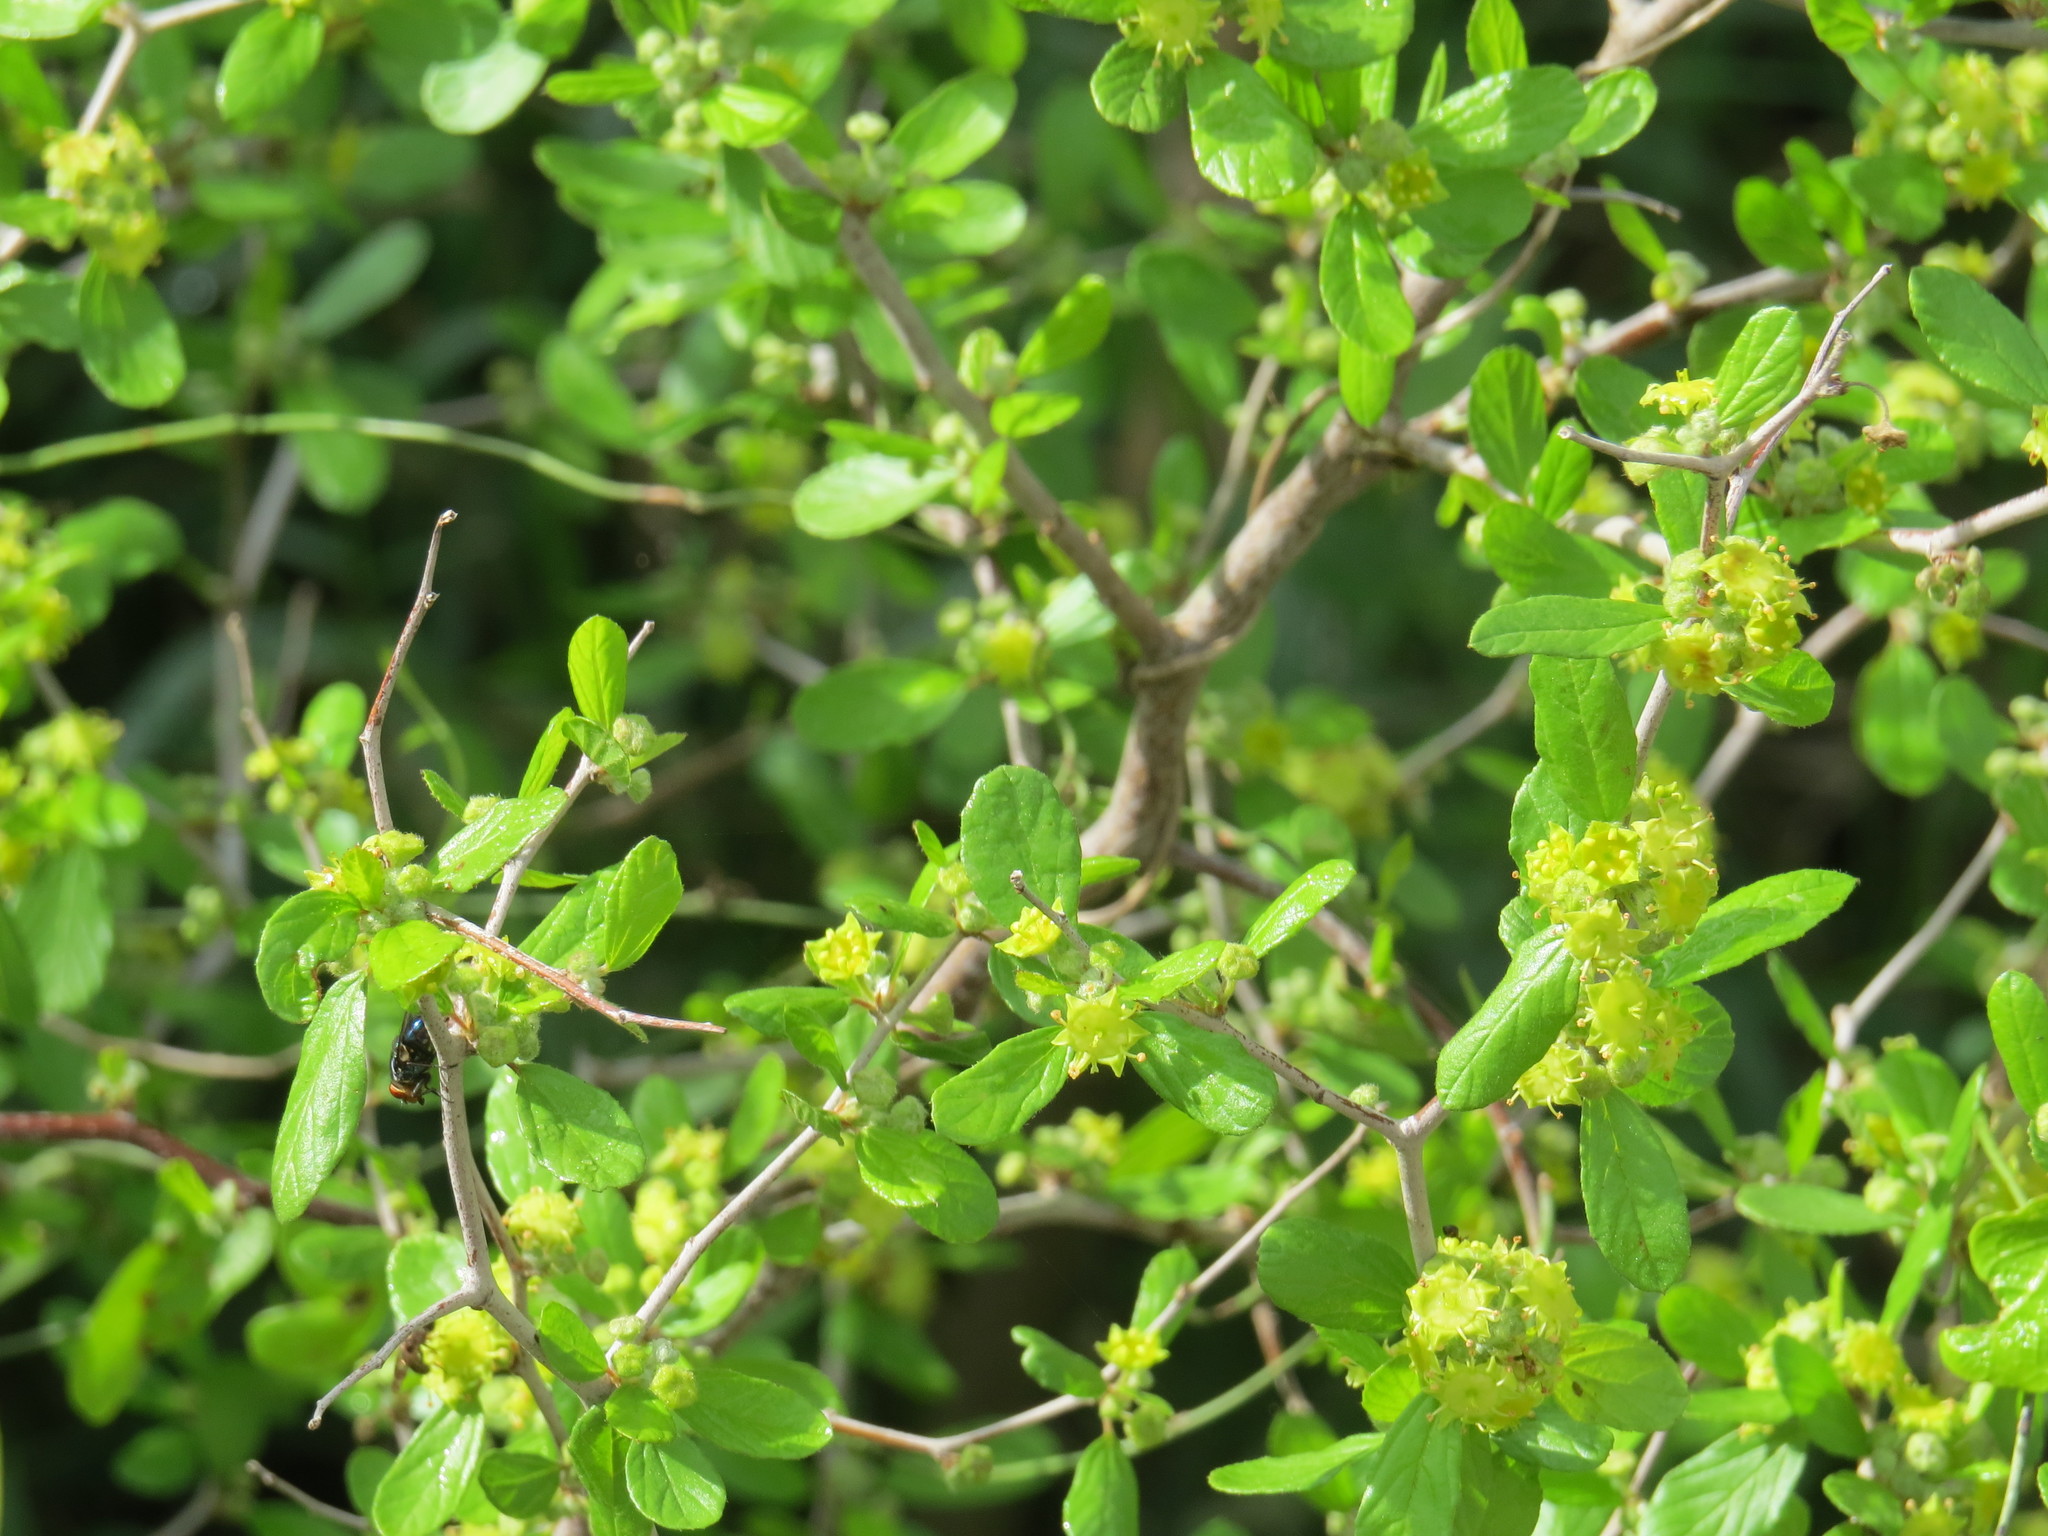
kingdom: Plantae
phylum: Tracheophyta
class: Magnoliopsida
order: Rosales
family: Rhamnaceae
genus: Colubrina
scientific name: Colubrina texensis
